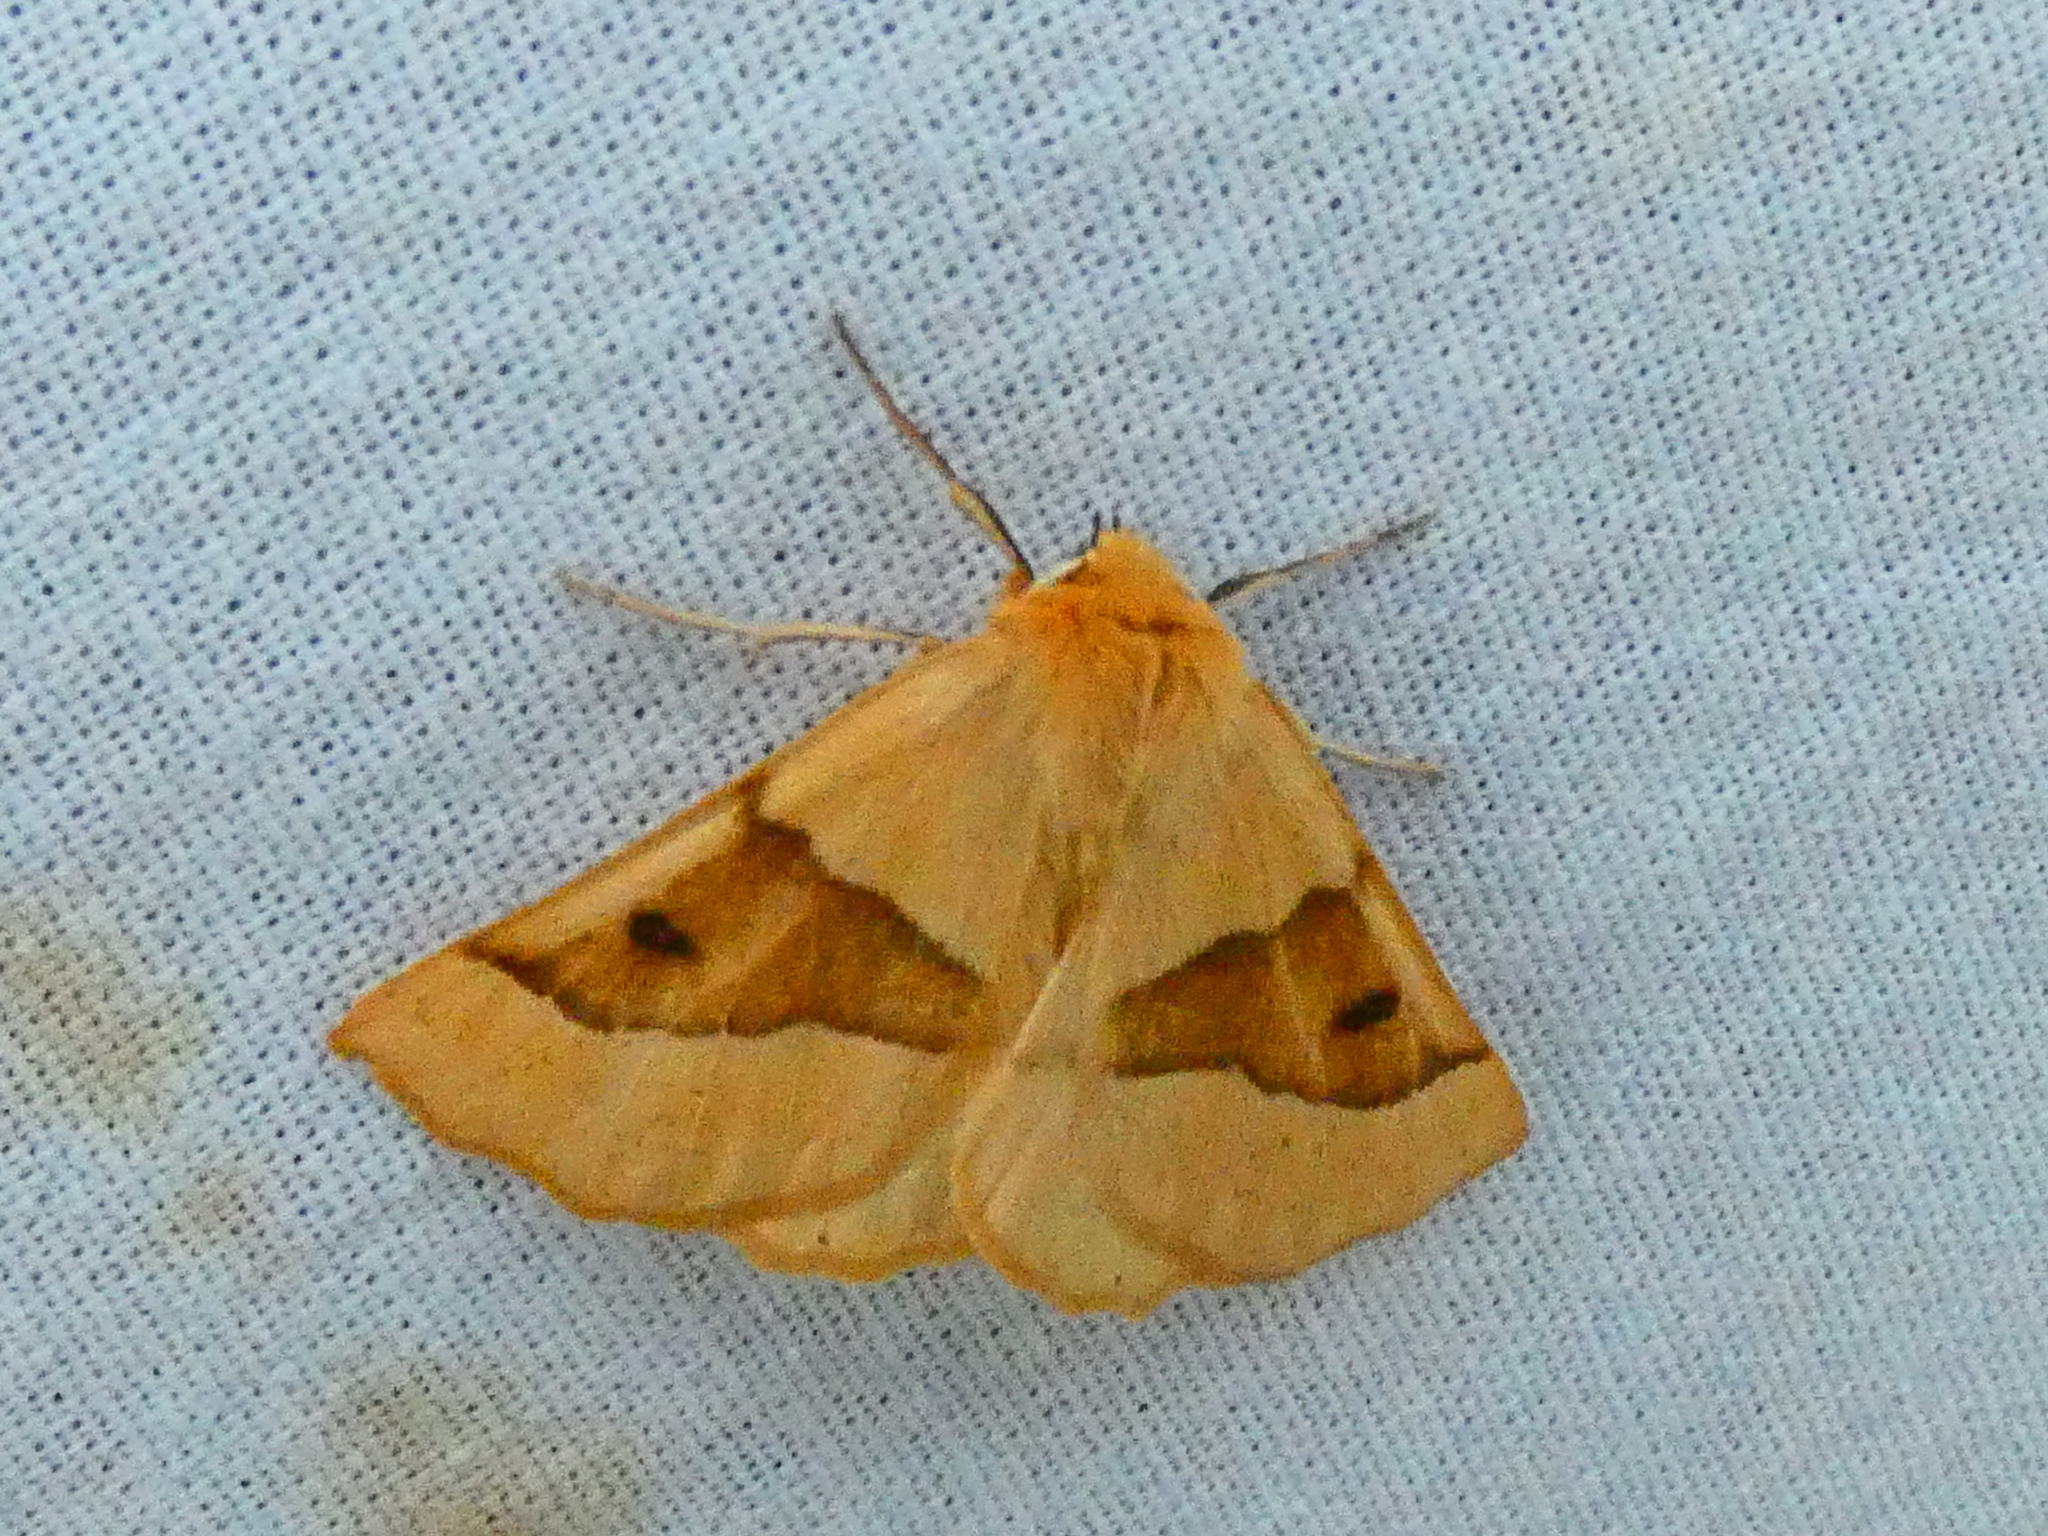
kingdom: Animalia
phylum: Arthropoda
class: Insecta
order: Lepidoptera
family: Geometridae
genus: Crocallis
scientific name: Crocallis elinguaria
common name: Scalloped oak
